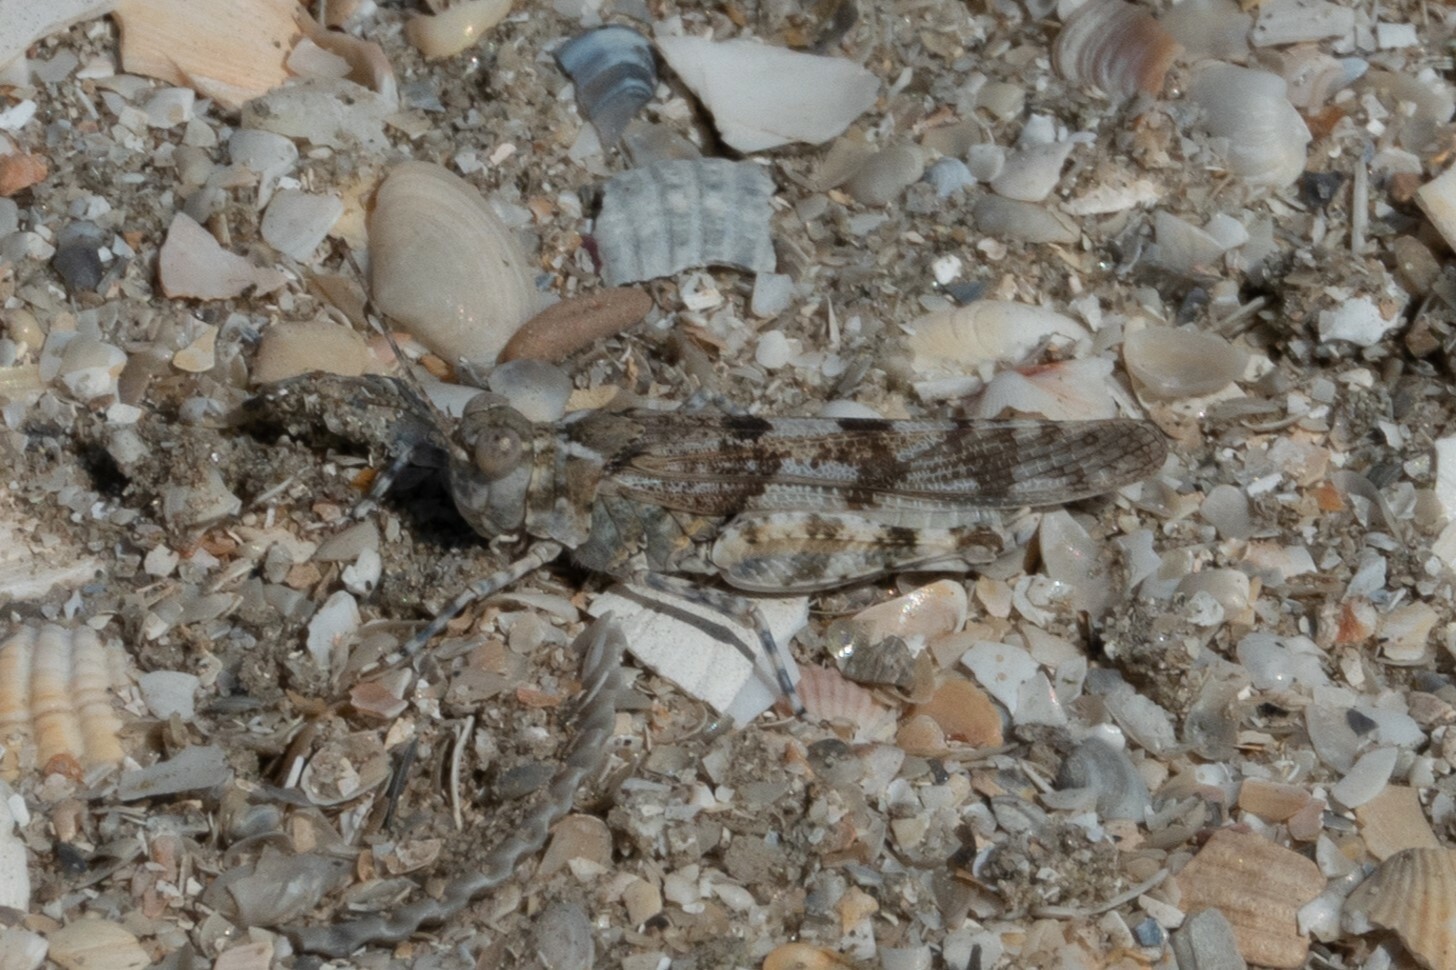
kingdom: Animalia
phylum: Arthropoda
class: Insecta
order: Orthoptera
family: Acrididae
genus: Sphingonotus
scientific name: Sphingonotus caerulans
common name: Blue-winged locust
